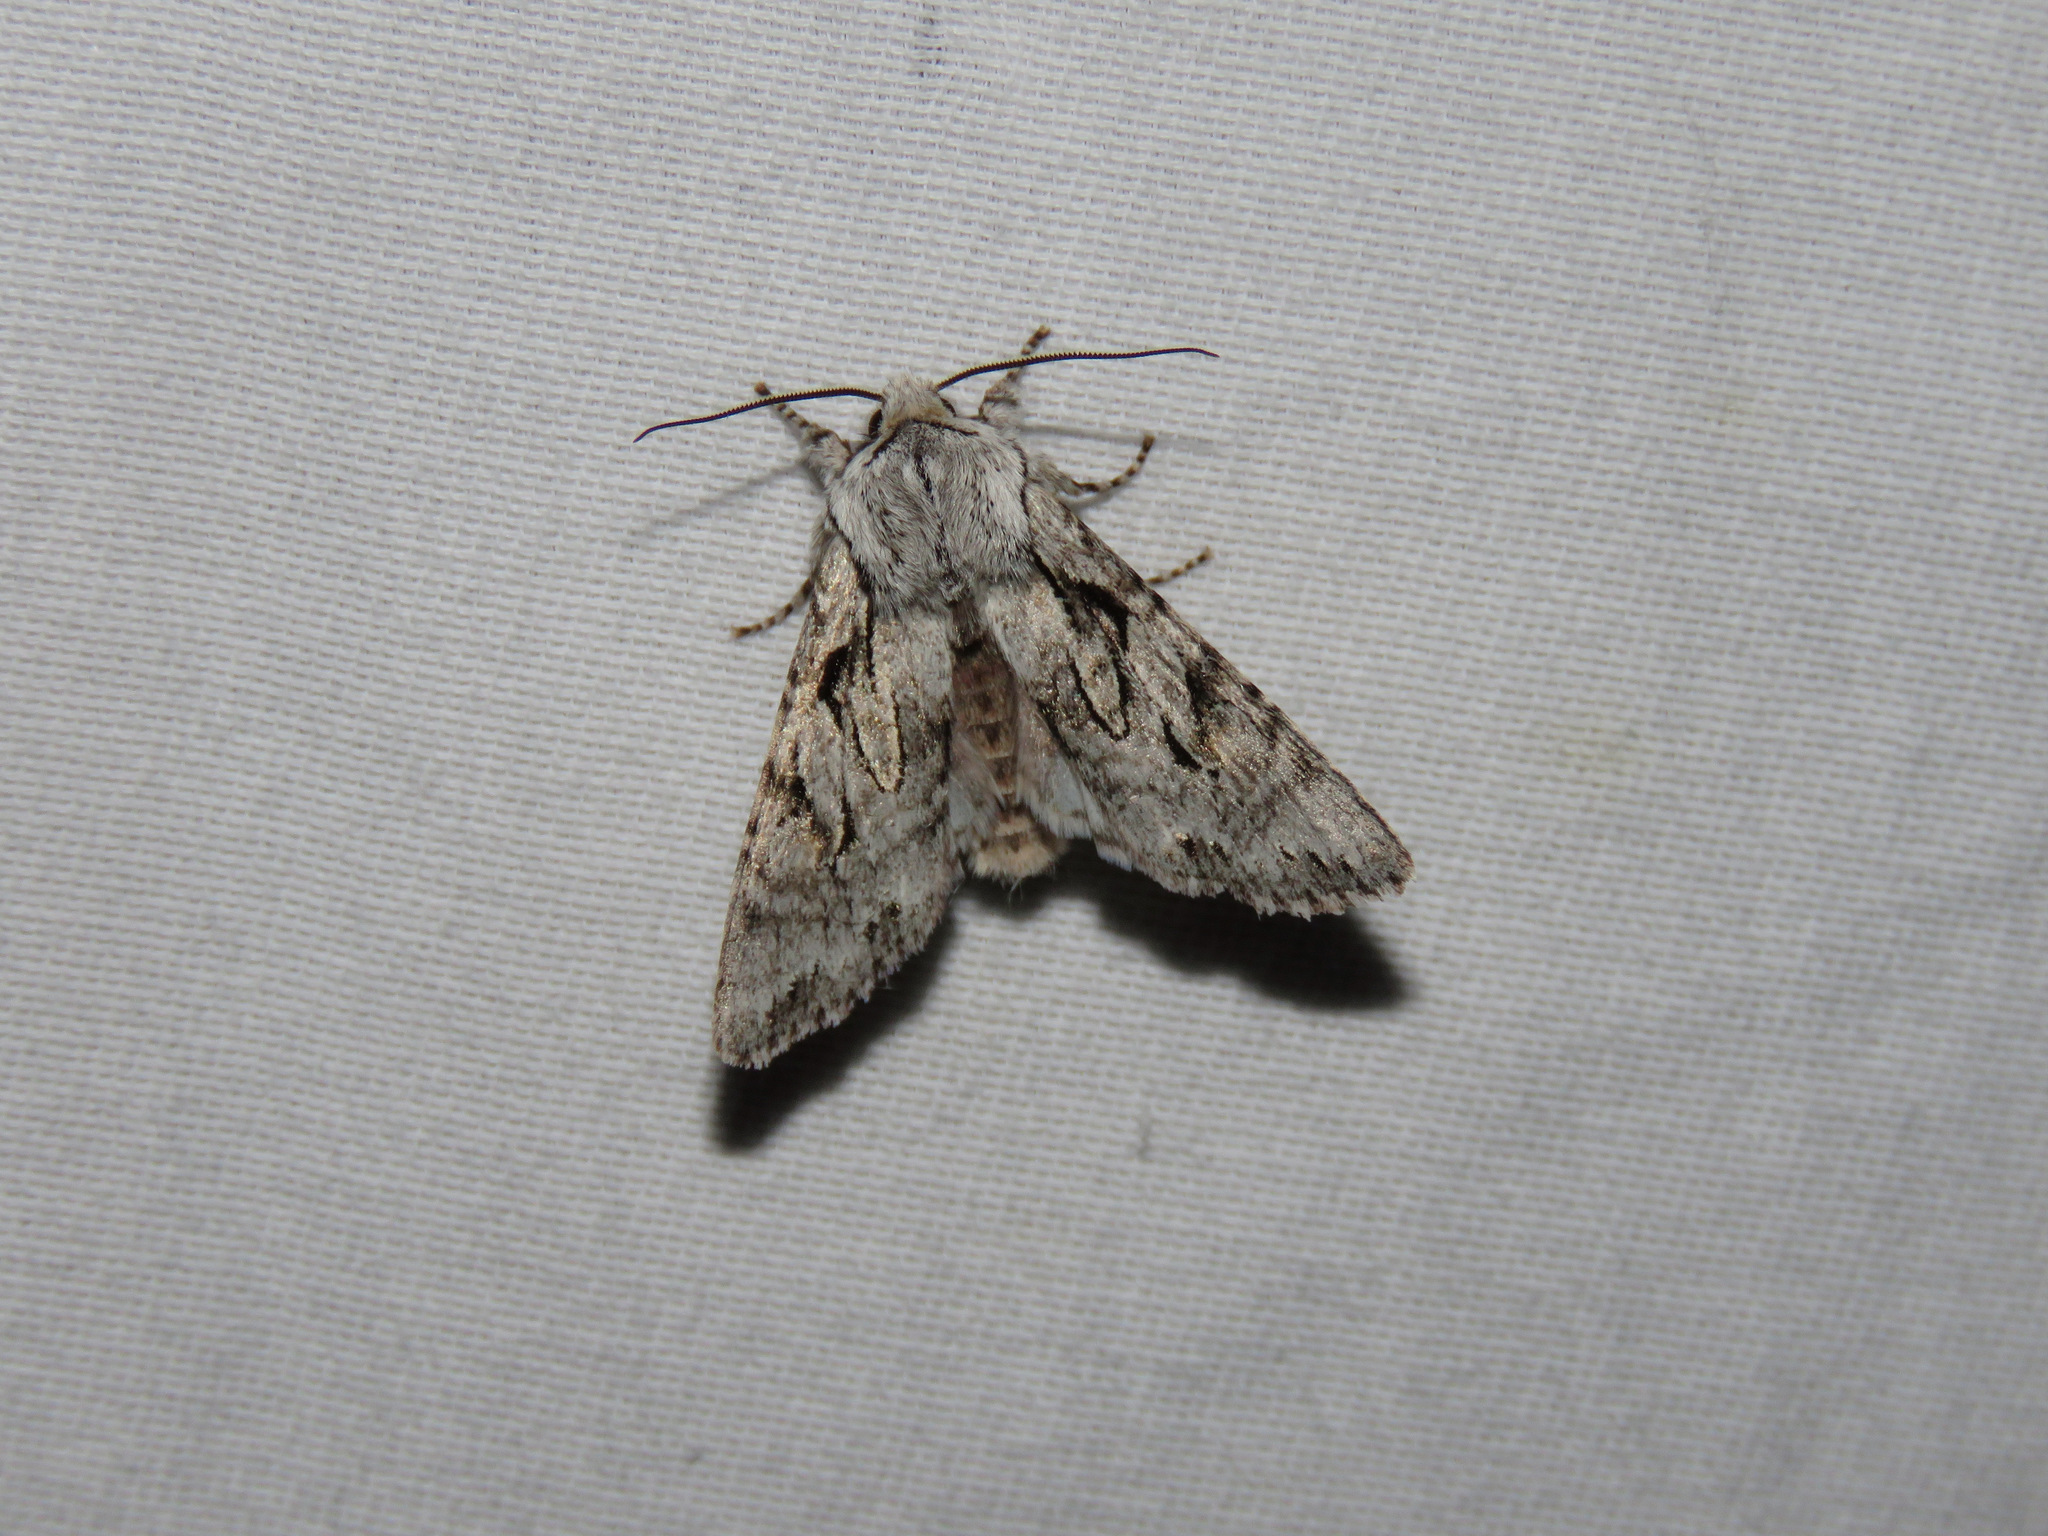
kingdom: Animalia
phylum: Arthropoda
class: Insecta
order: Lepidoptera
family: Noctuidae
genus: Egira
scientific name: Egira simplex
